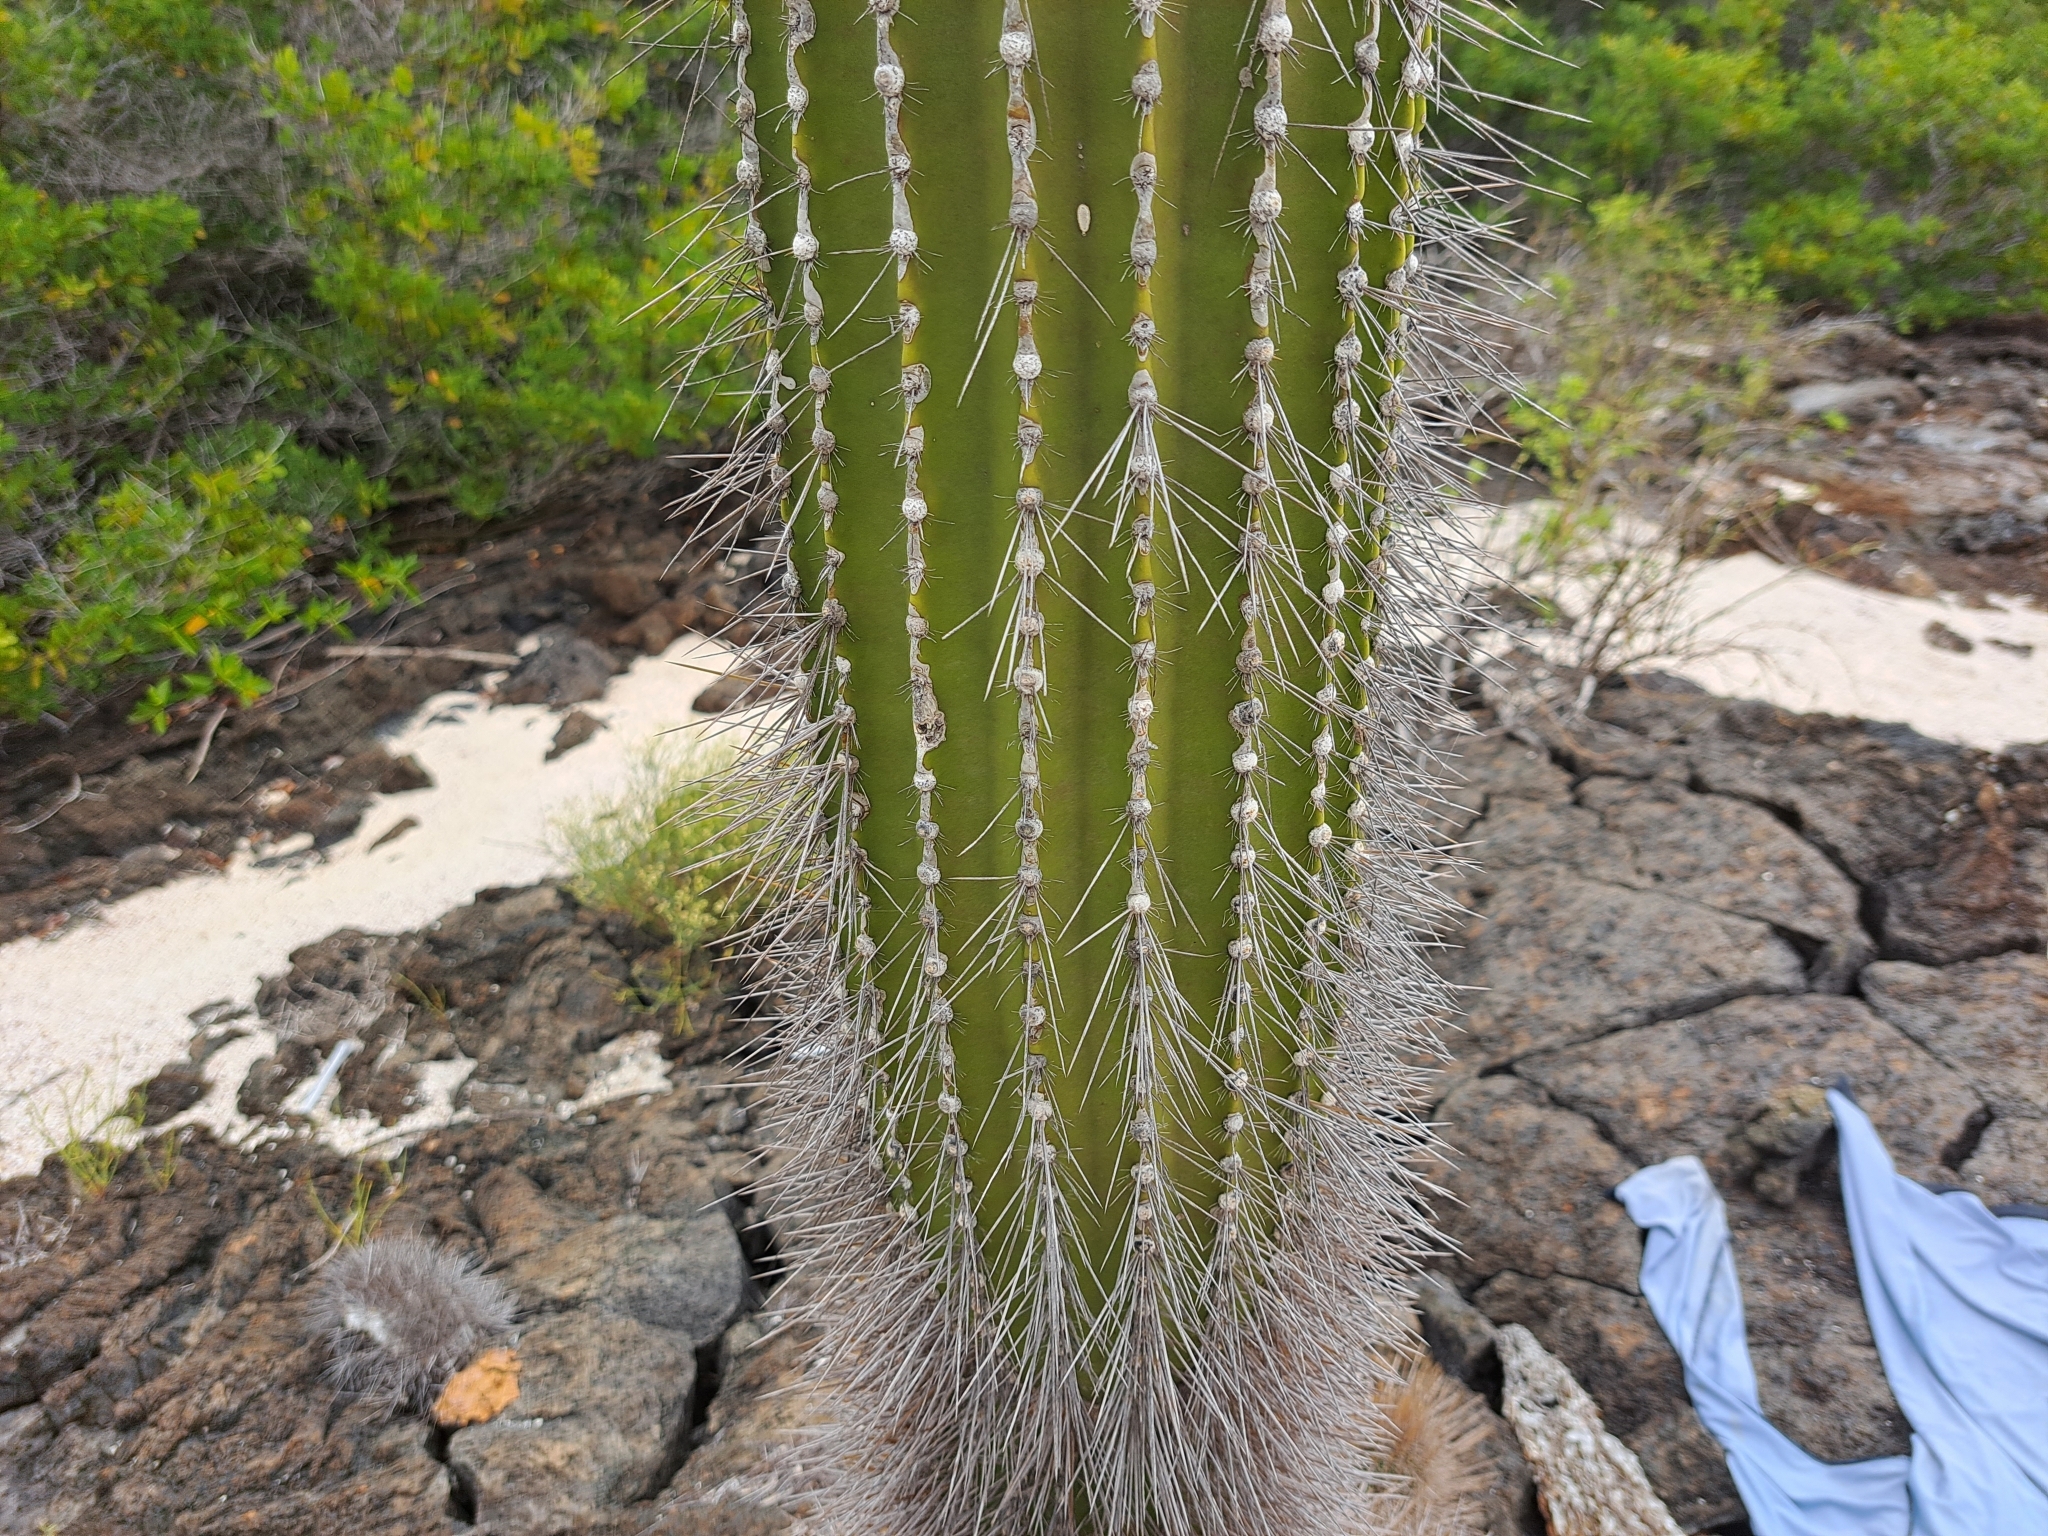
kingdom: Plantae
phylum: Tracheophyta
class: Magnoliopsida
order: Caryophyllales
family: Cactaceae
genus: Jasminocereus
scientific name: Jasminocereus thouarsii
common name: Candelabra cactus
